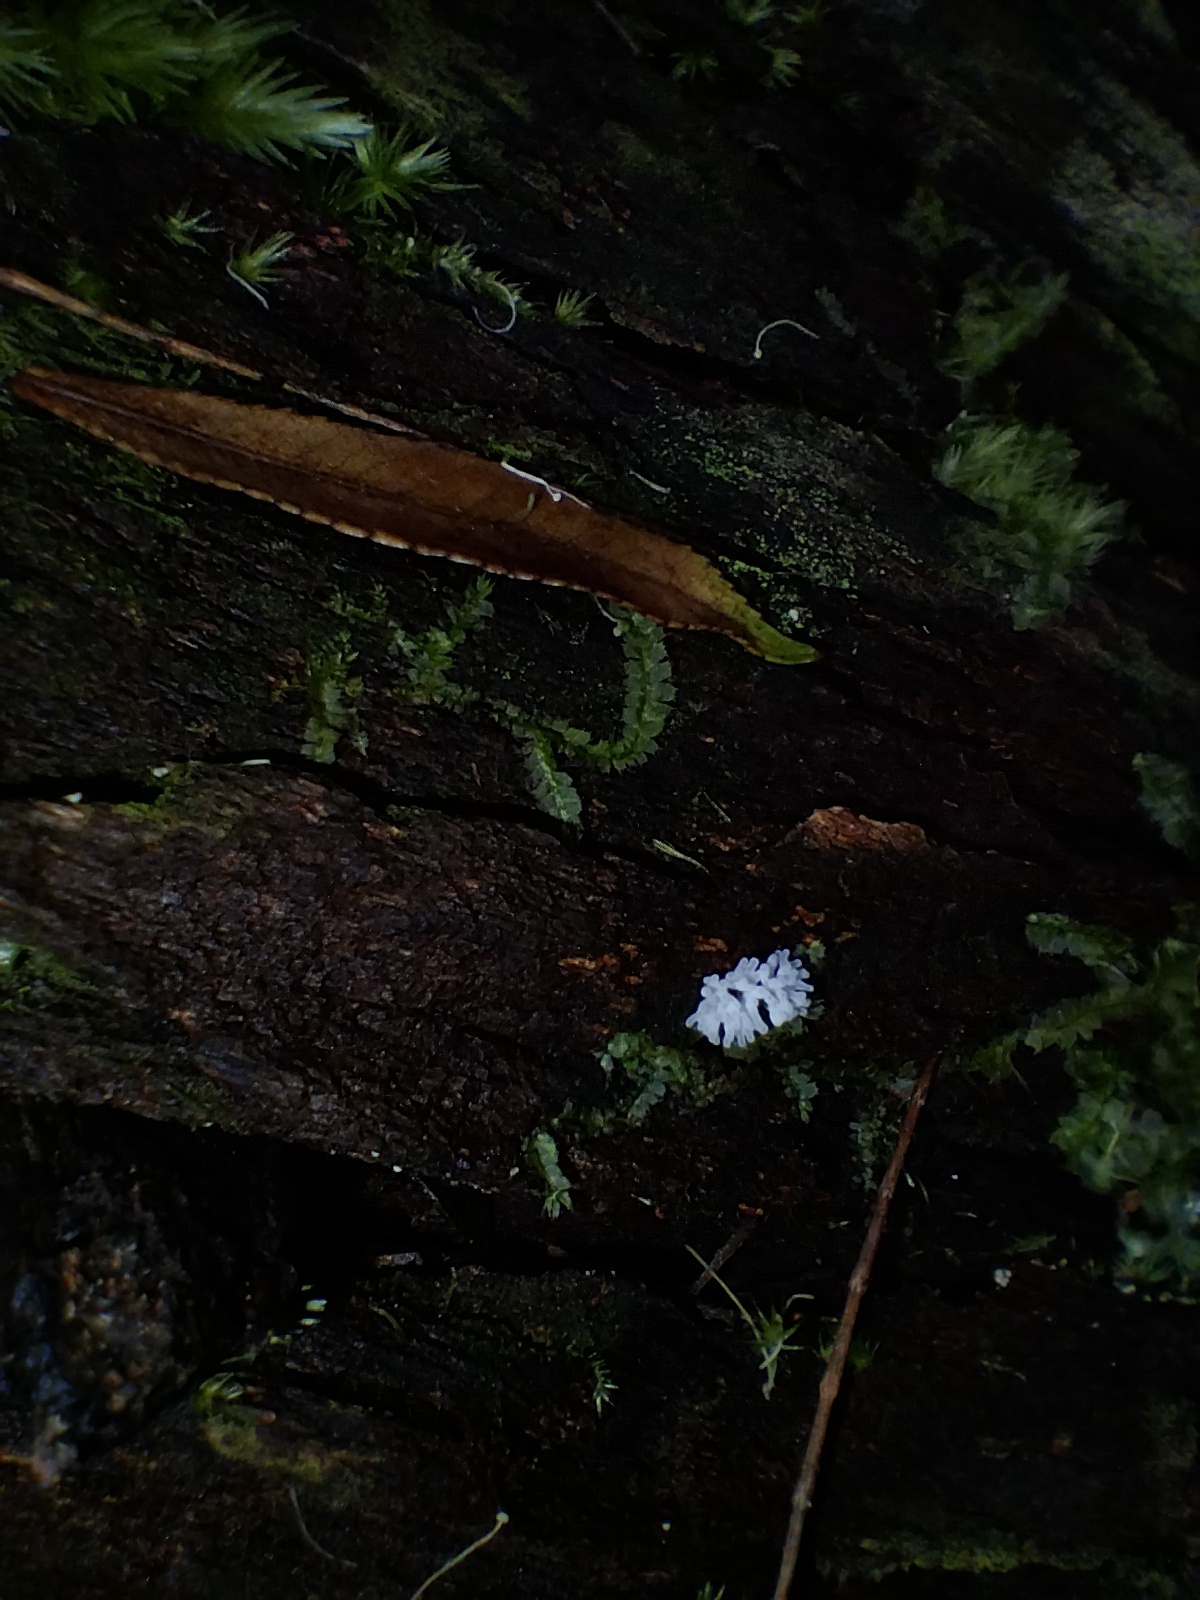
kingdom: Protozoa
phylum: Mycetozoa
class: Protosteliomycetes
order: Ceratiomyxales
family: Ceratiomyxaceae
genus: Ceratiomyxa
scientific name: Ceratiomyxa fruticulosa
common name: Honeycomb coral slime mold
